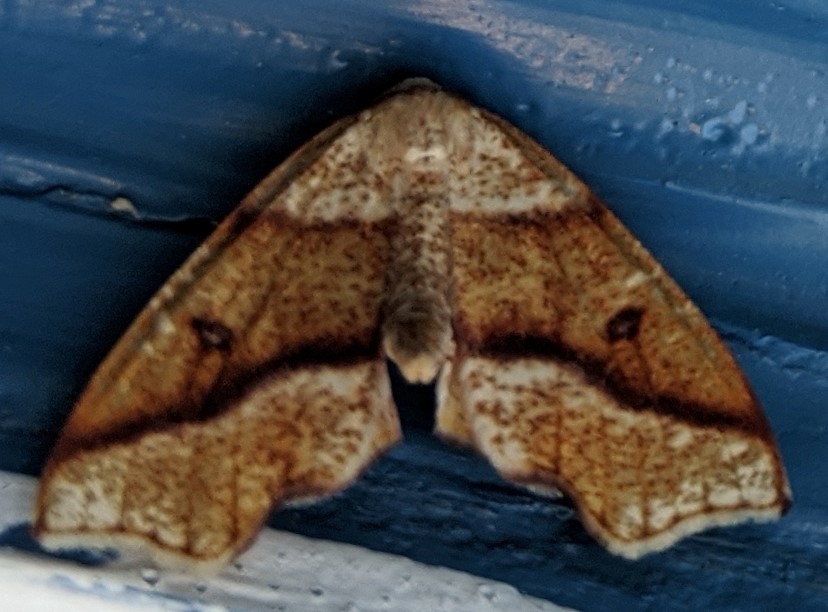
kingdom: Animalia
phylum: Arthropoda
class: Insecta
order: Lepidoptera
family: Geometridae
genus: Plagodis
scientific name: Plagodis alcoolaria
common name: Hollow-spotted plagodis
